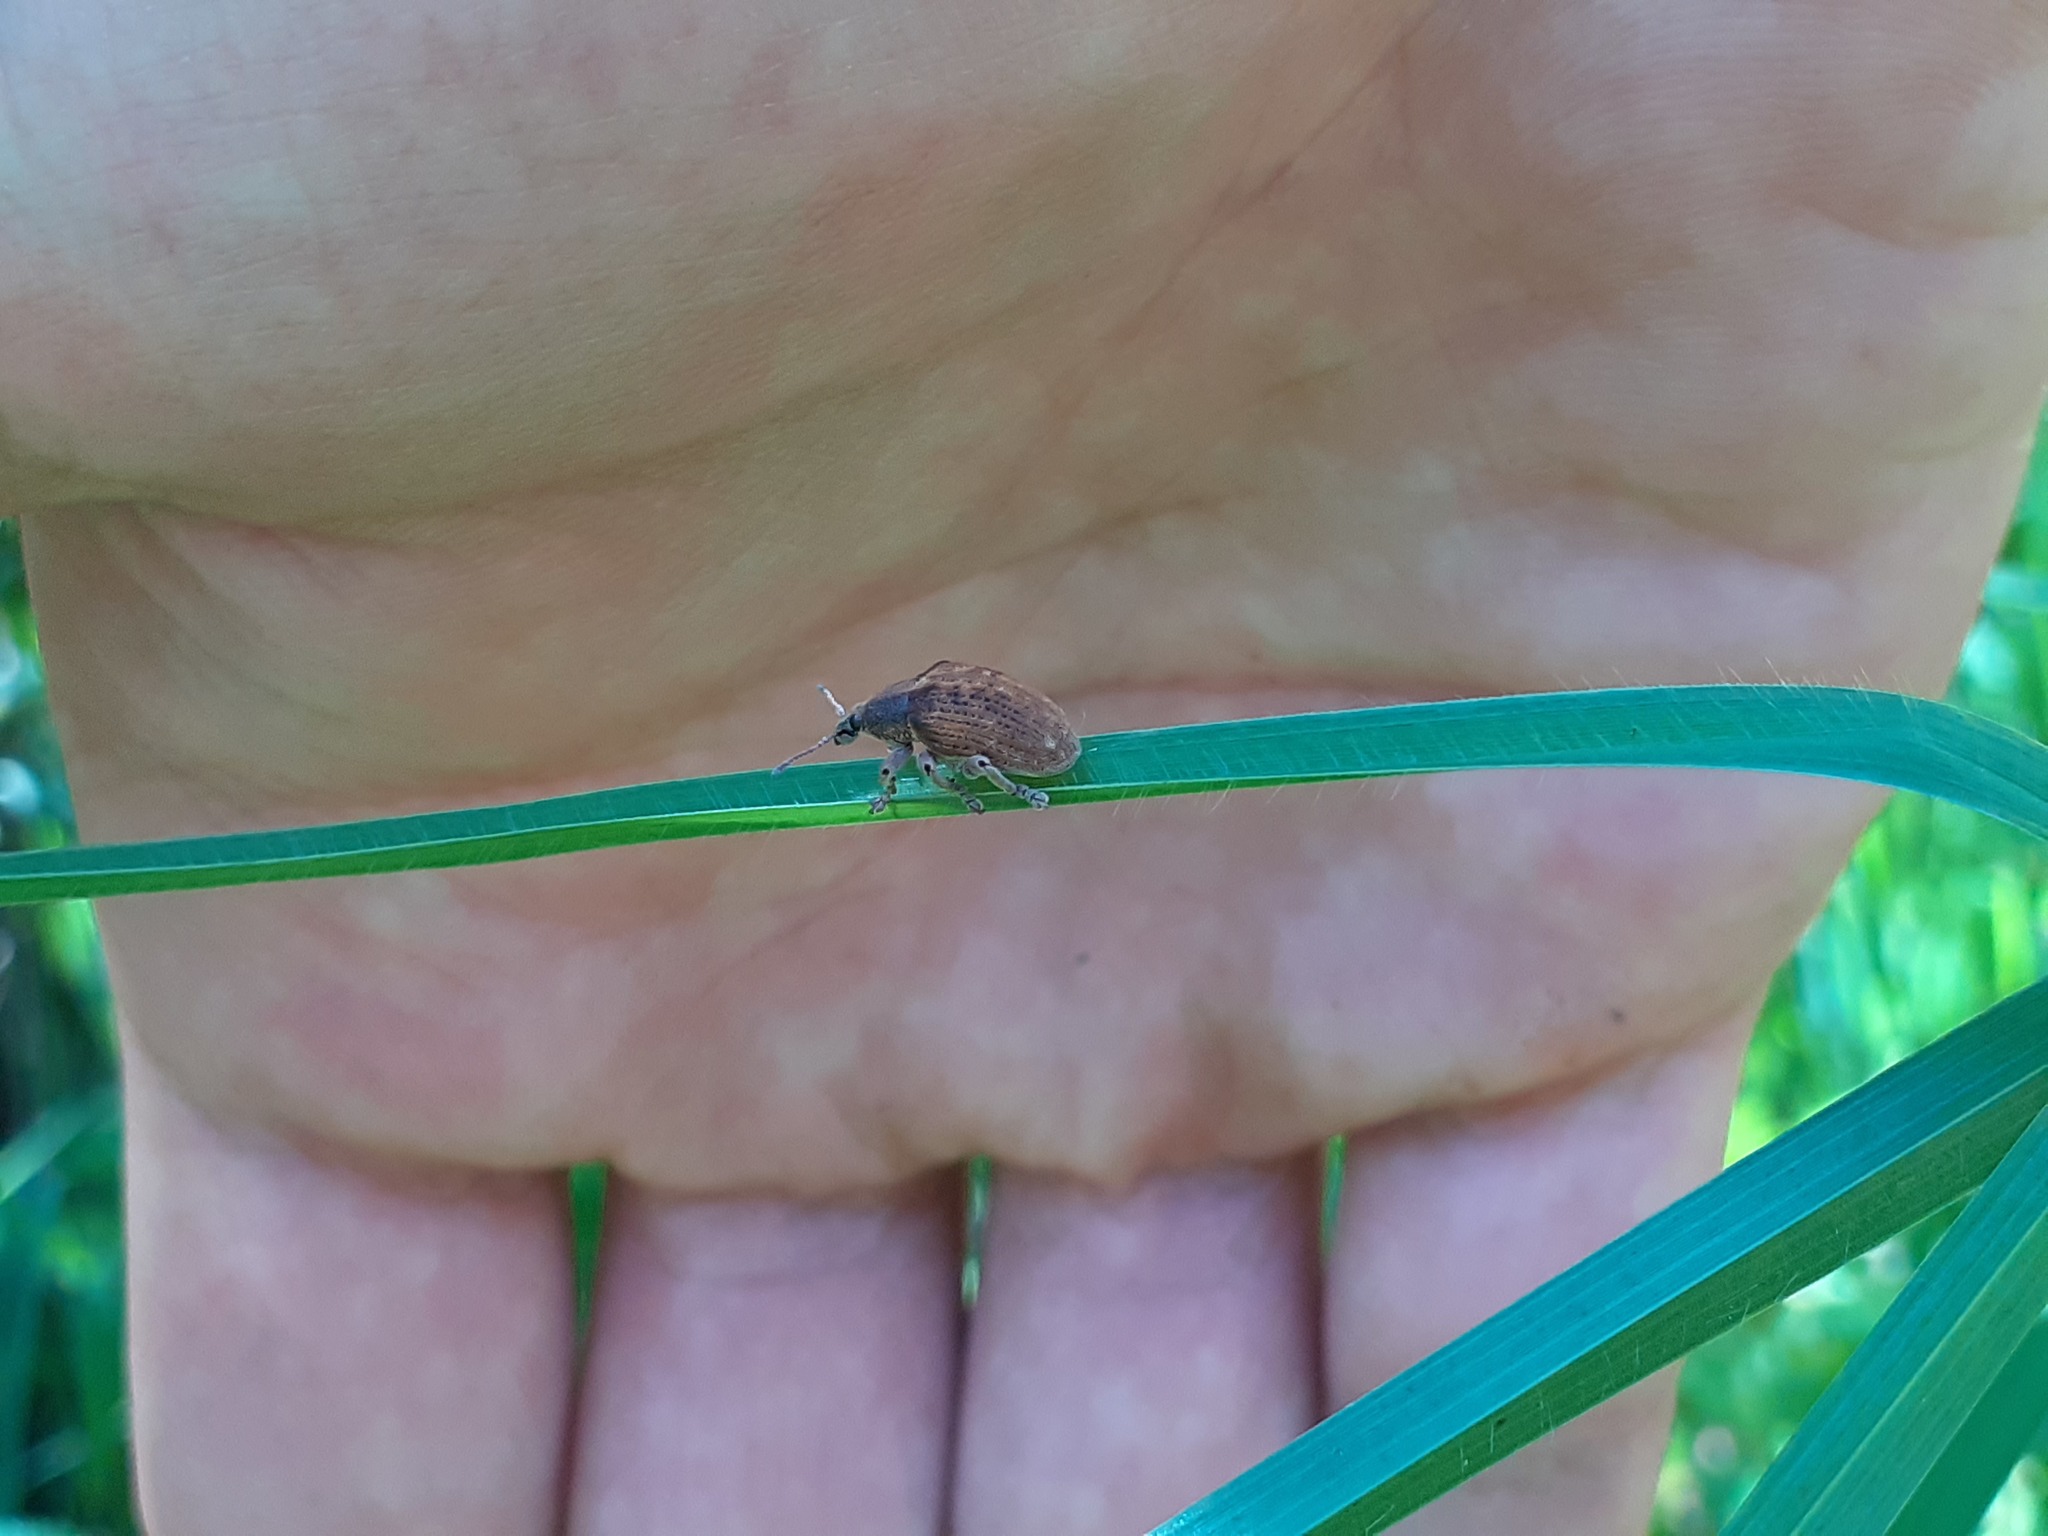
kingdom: Animalia
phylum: Arthropoda
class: Insecta
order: Coleoptera
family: Curculionidae
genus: Gonipterus
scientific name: Gonipterus platensis
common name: Eucalyptus snout beetle
